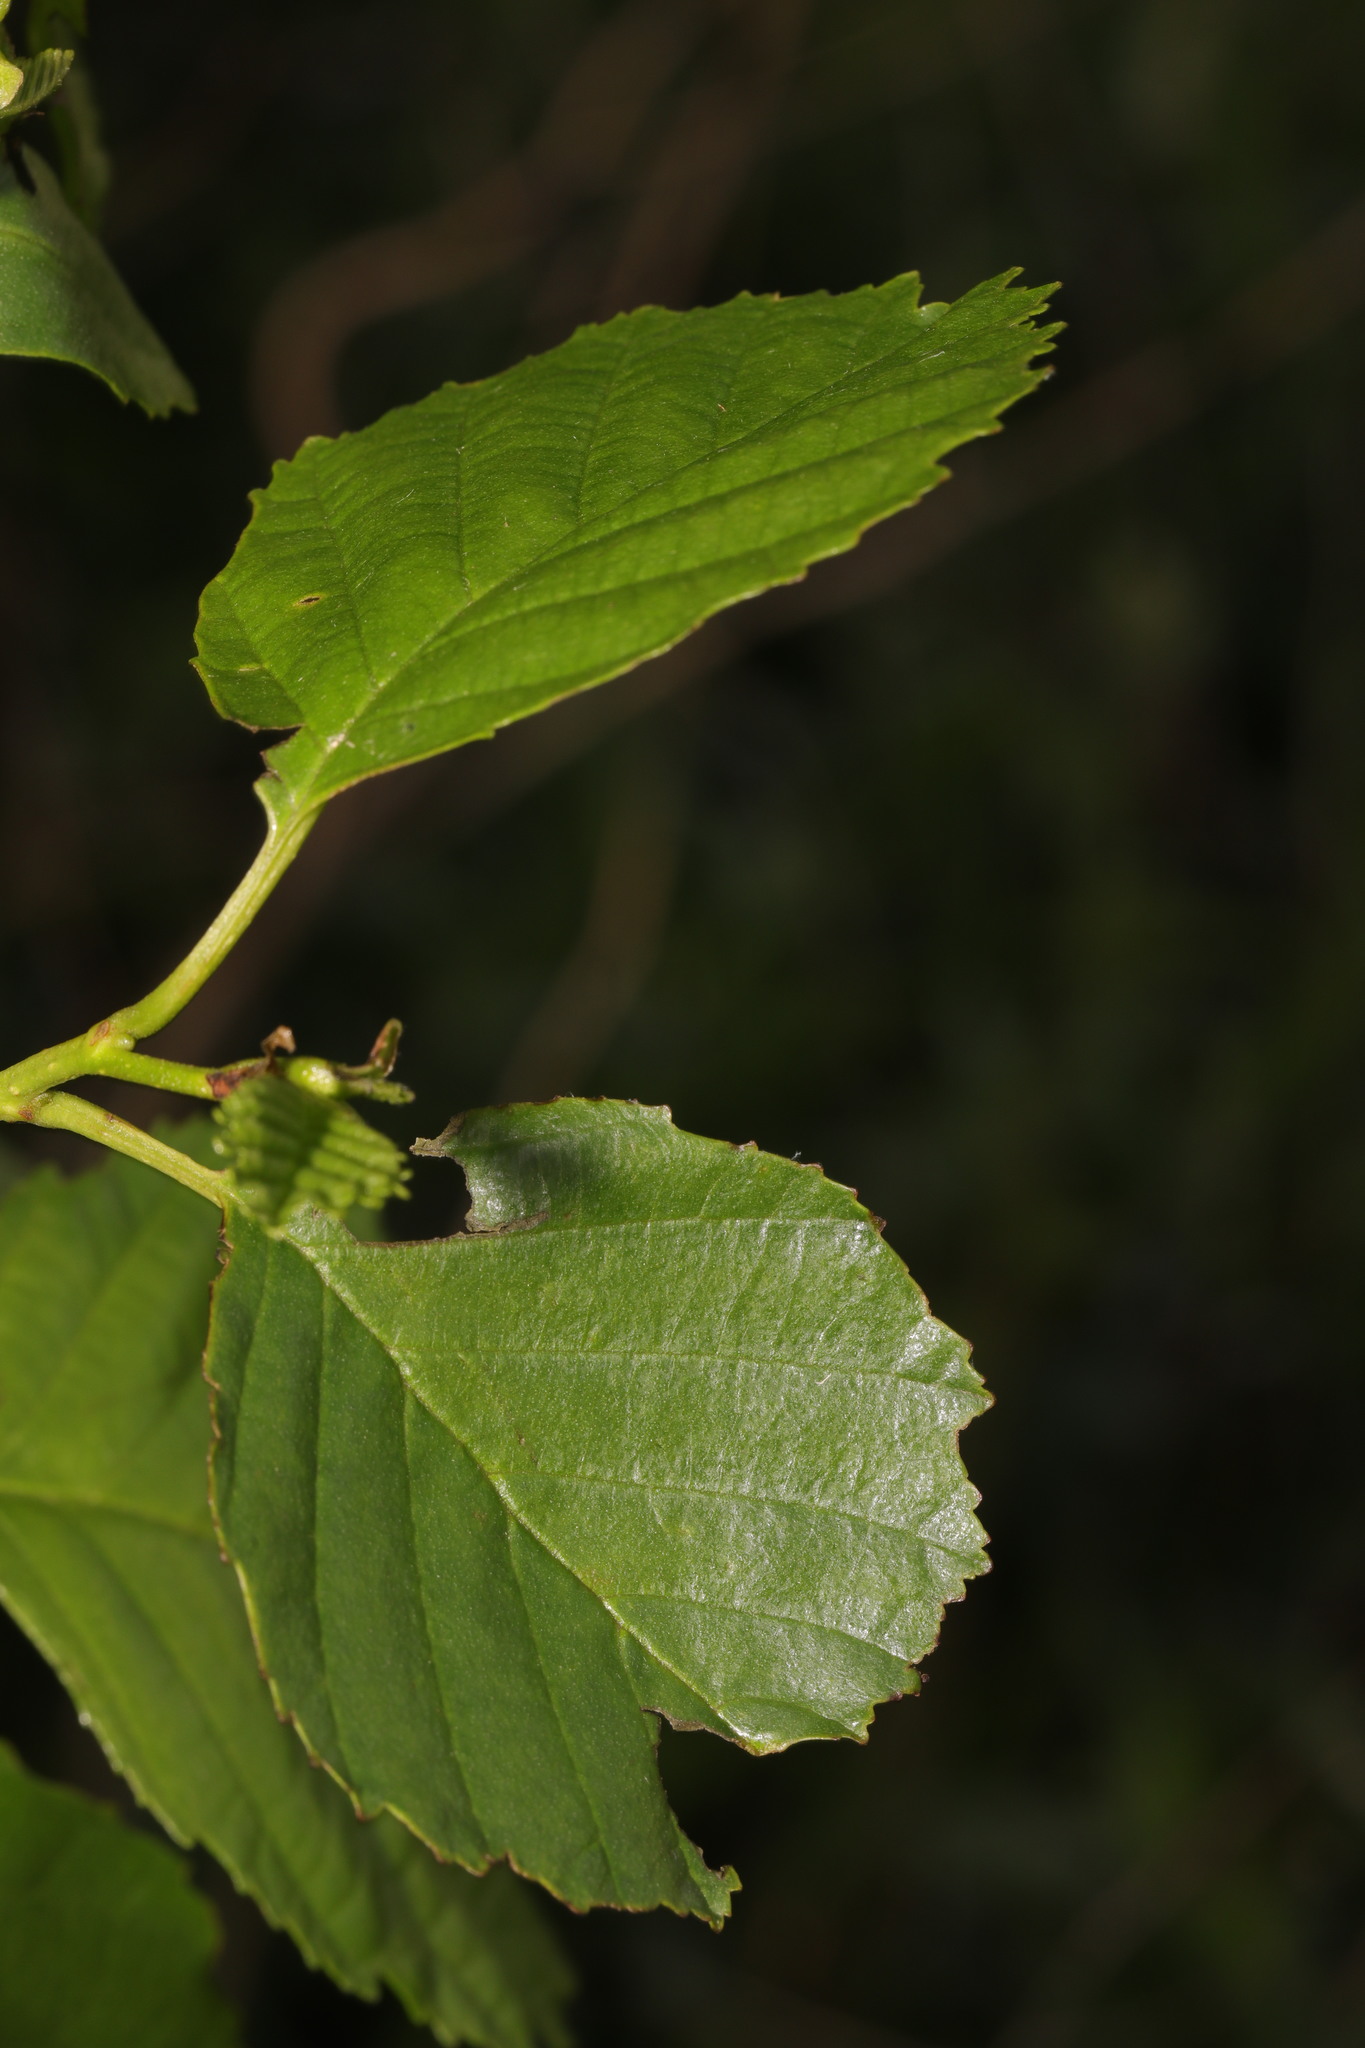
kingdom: Plantae
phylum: Tracheophyta
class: Magnoliopsida
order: Fagales
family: Betulaceae
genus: Alnus
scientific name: Alnus glutinosa
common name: Black alder
